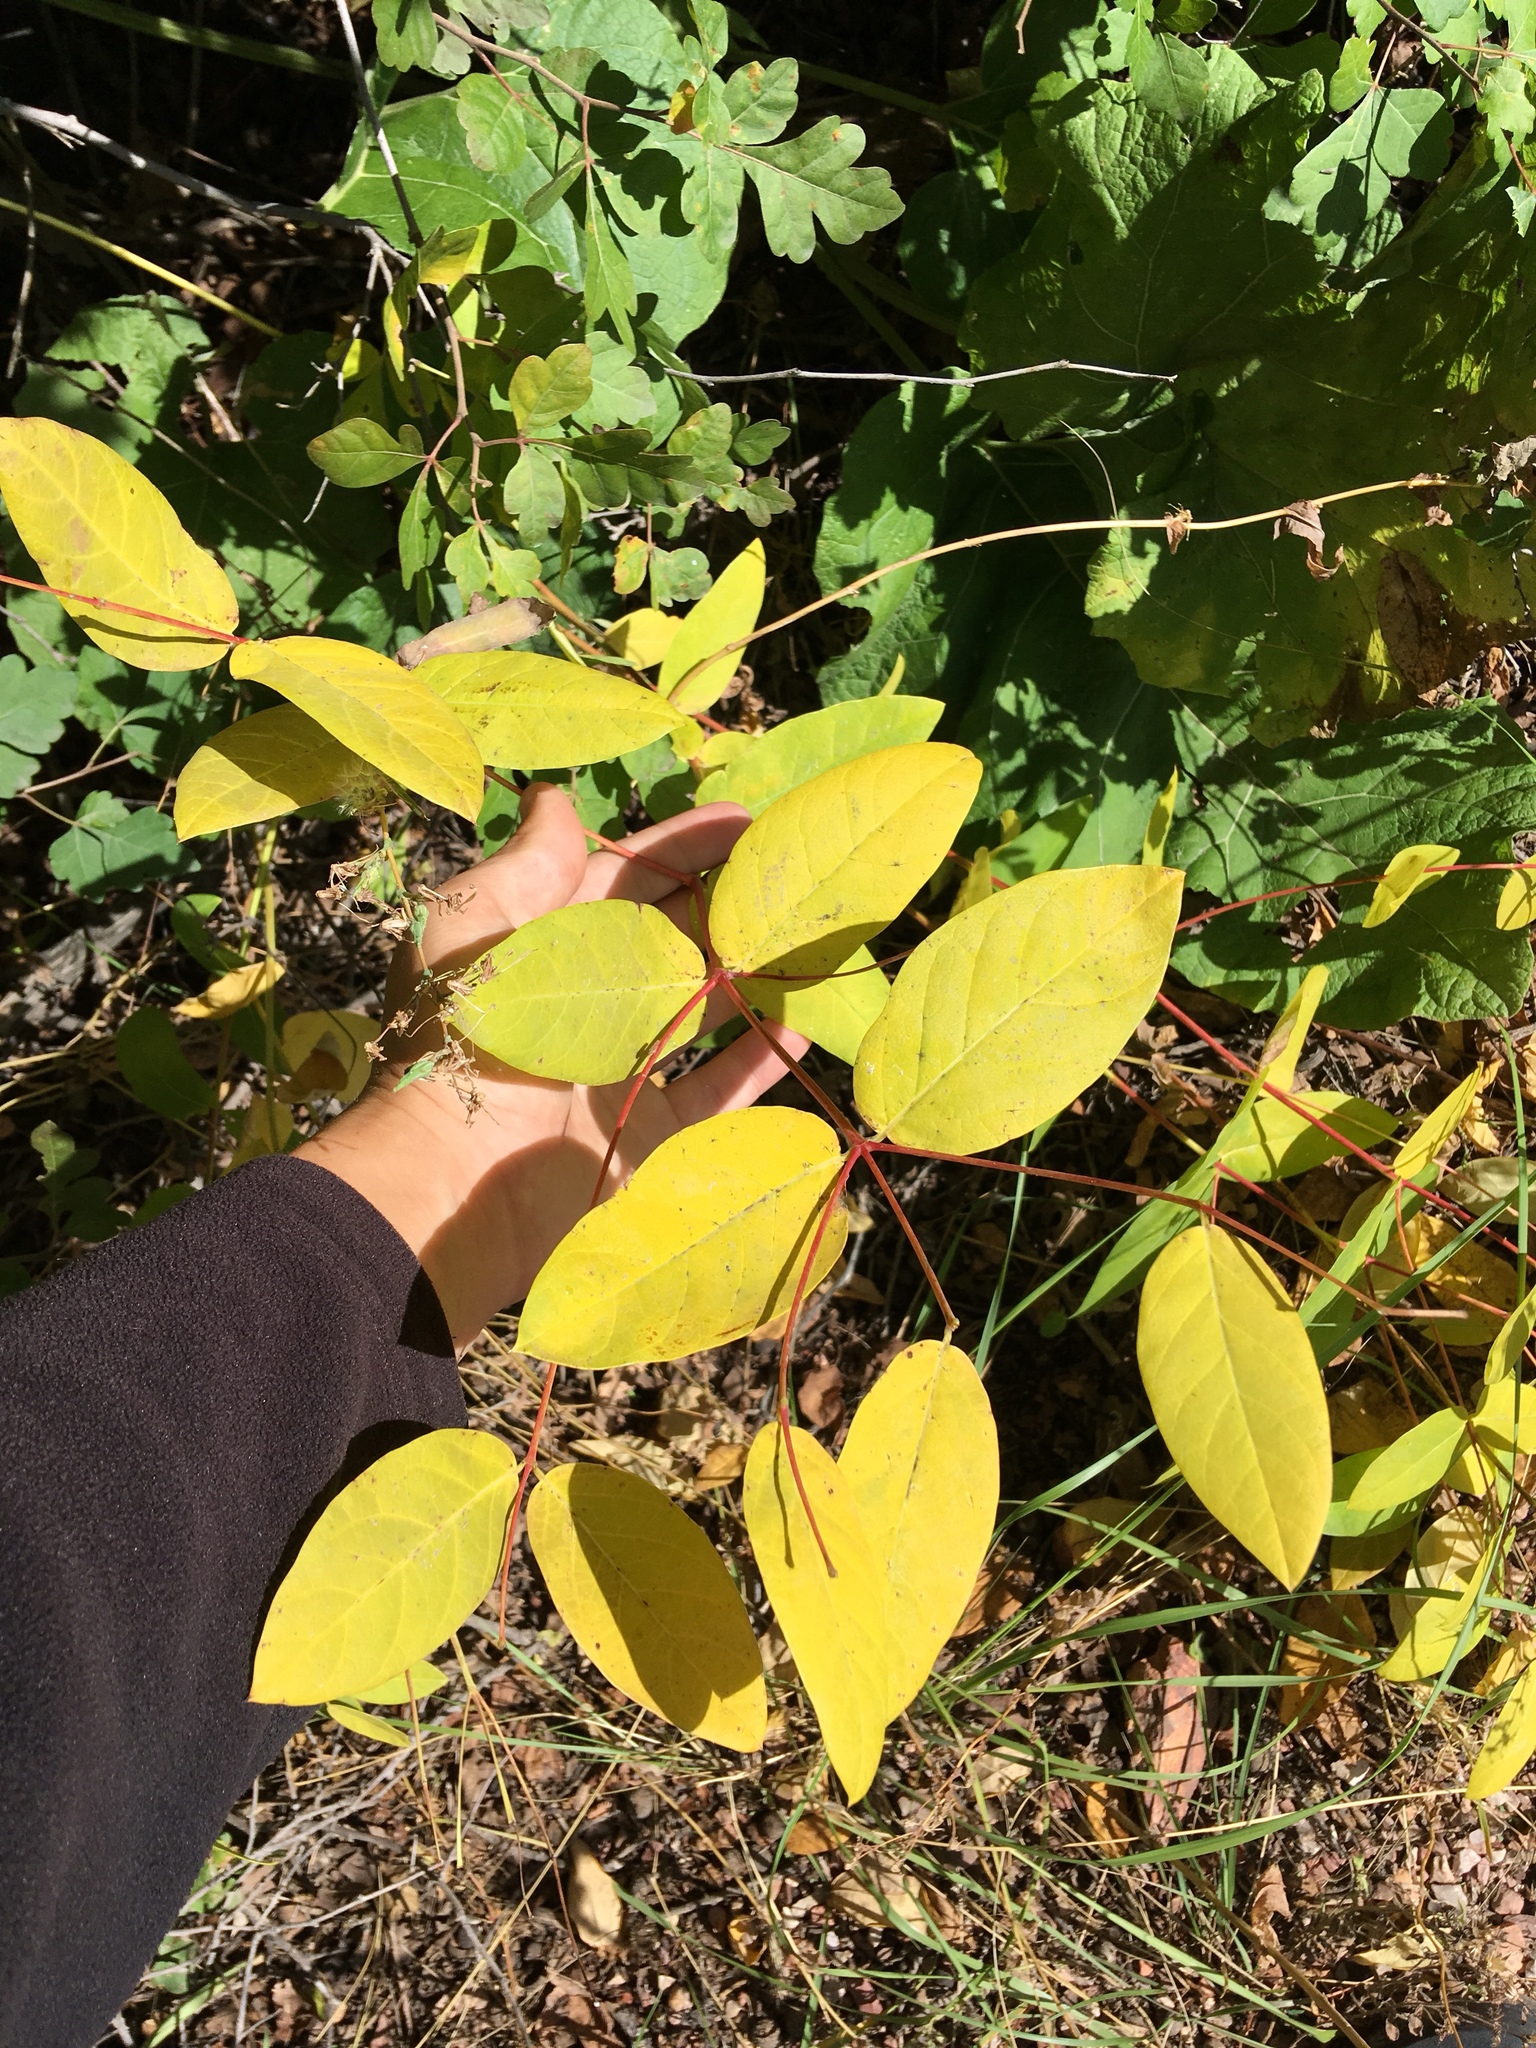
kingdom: Plantae
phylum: Tracheophyta
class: Magnoliopsida
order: Gentianales
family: Apocynaceae
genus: Apocynum
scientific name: Apocynum androsaemifolium
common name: Spreading dogbane
